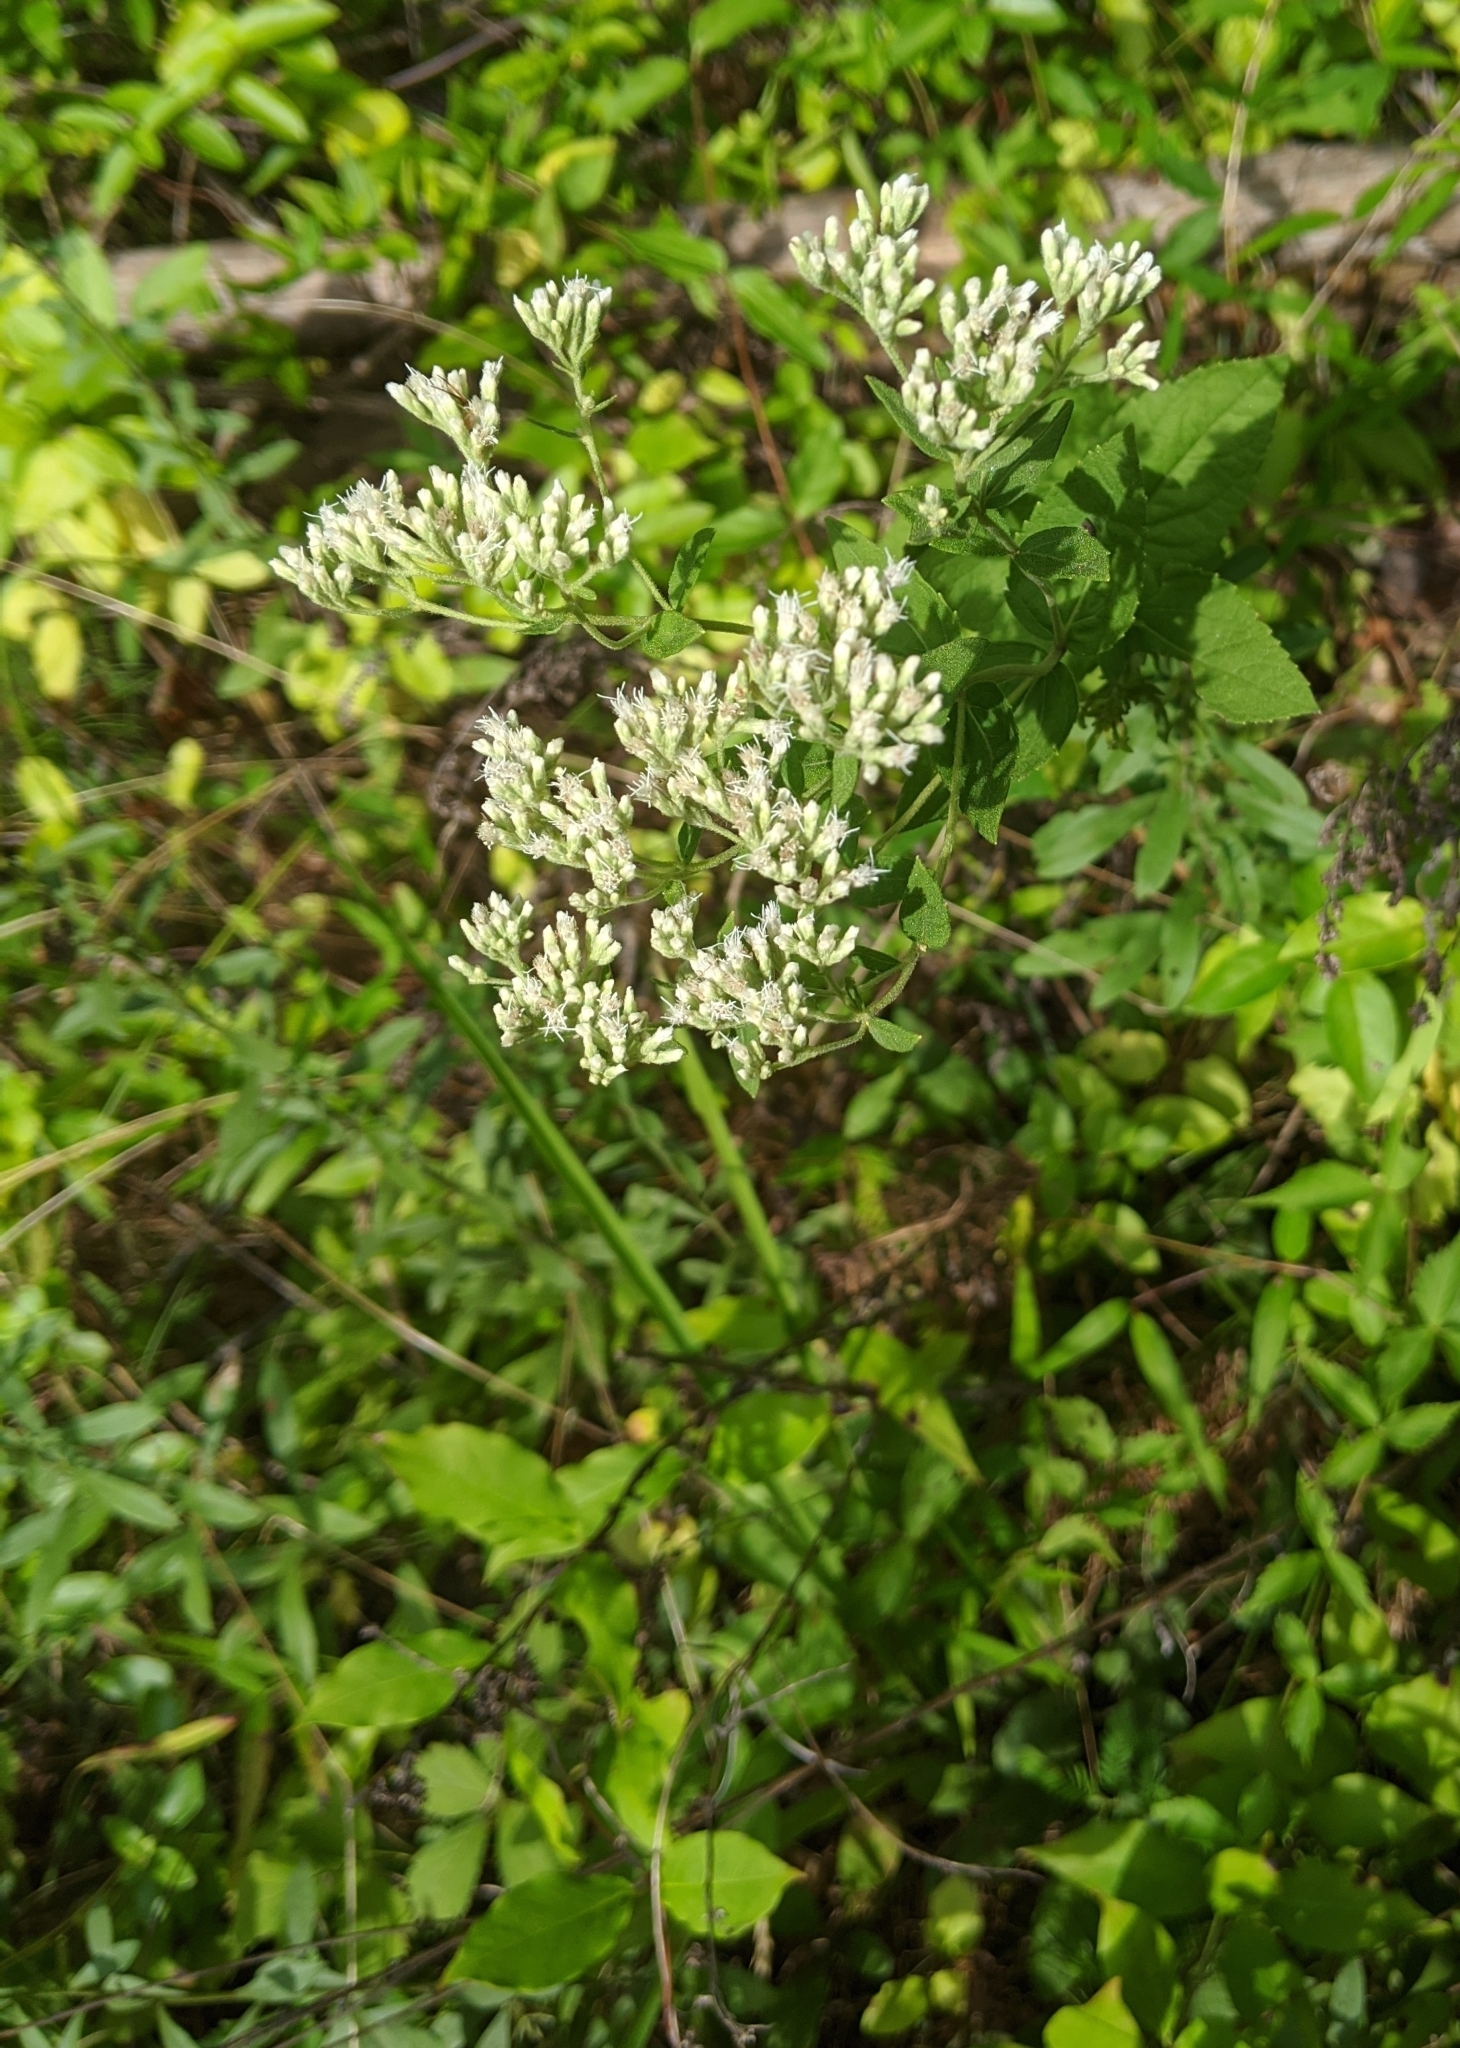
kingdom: Plantae
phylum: Tracheophyta
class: Magnoliopsida
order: Asterales
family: Asteraceae
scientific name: Asteraceae
